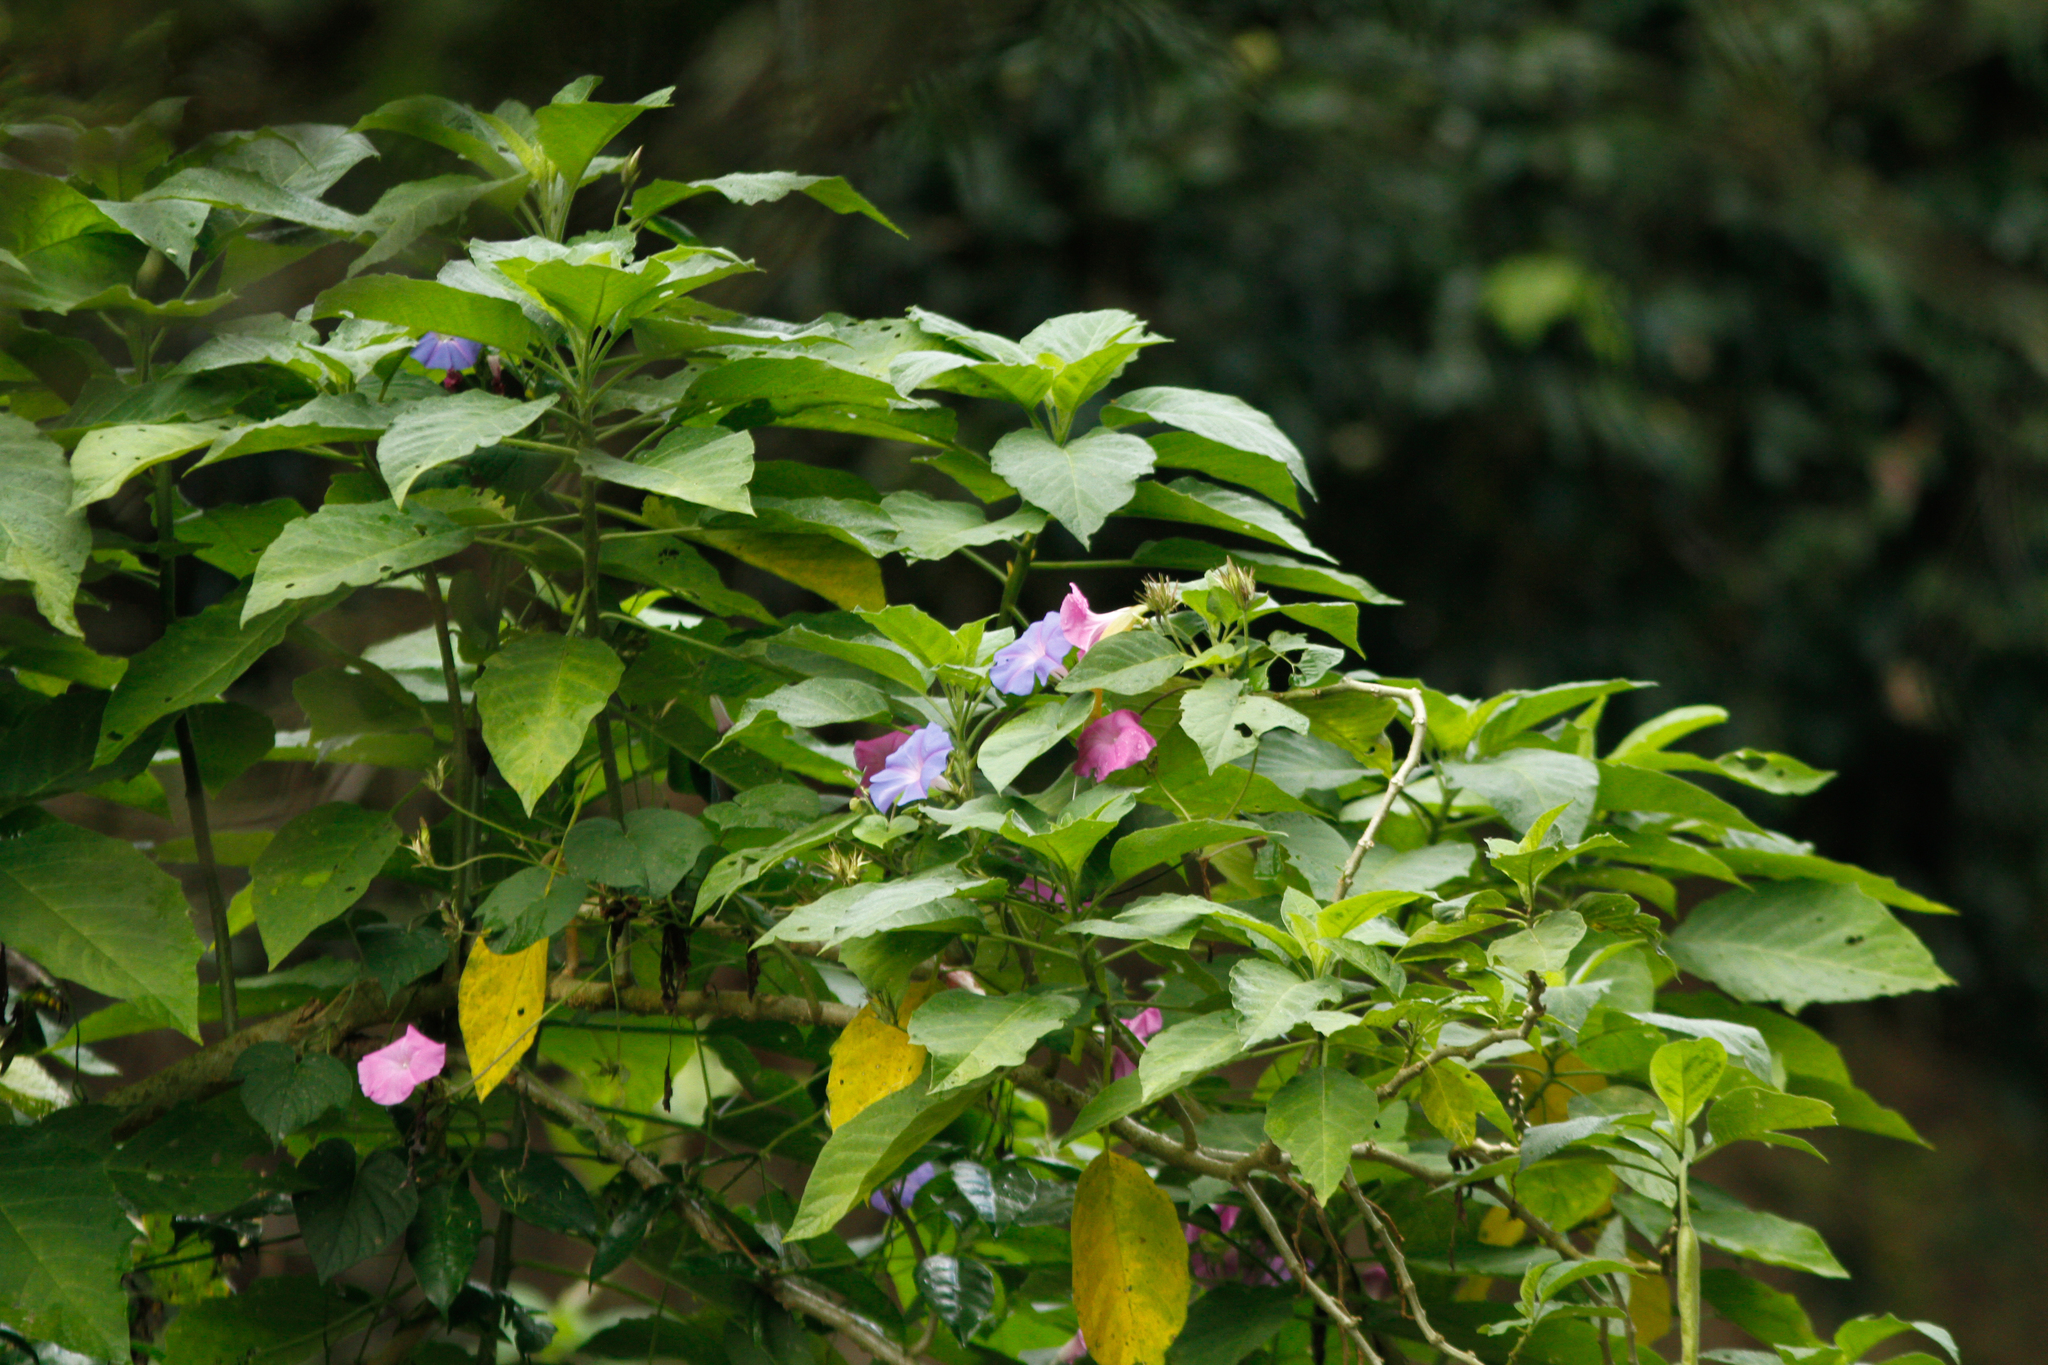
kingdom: Plantae
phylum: Tracheophyta
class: Magnoliopsida
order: Solanales
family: Convolvulaceae
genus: Ipomoea
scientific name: Ipomoea indica
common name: Blue dawnflower
